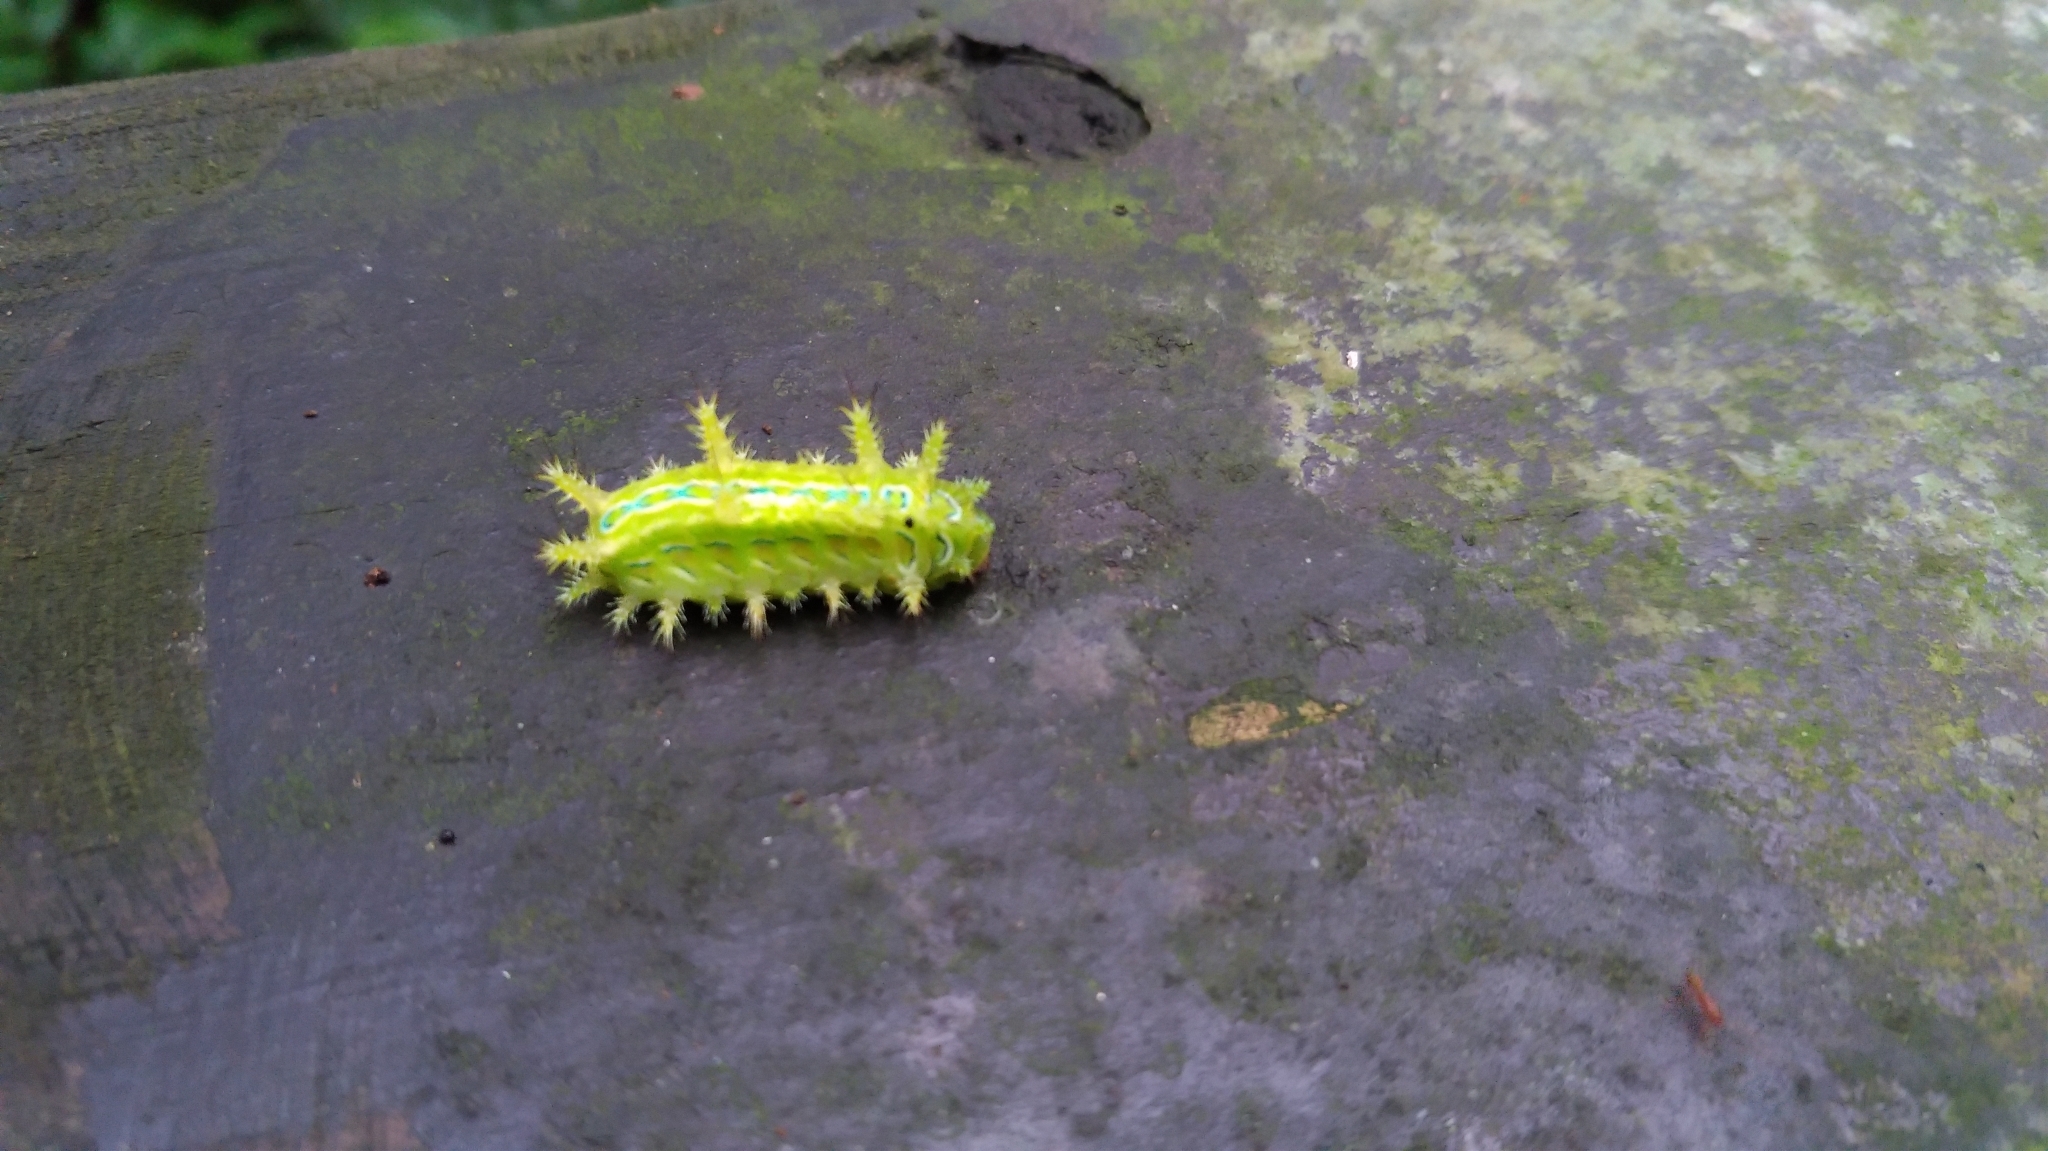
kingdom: Animalia
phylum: Arthropoda
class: Insecta
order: Lepidoptera
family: Limacodidae
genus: Phlossa
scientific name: Phlossa conjuncta
